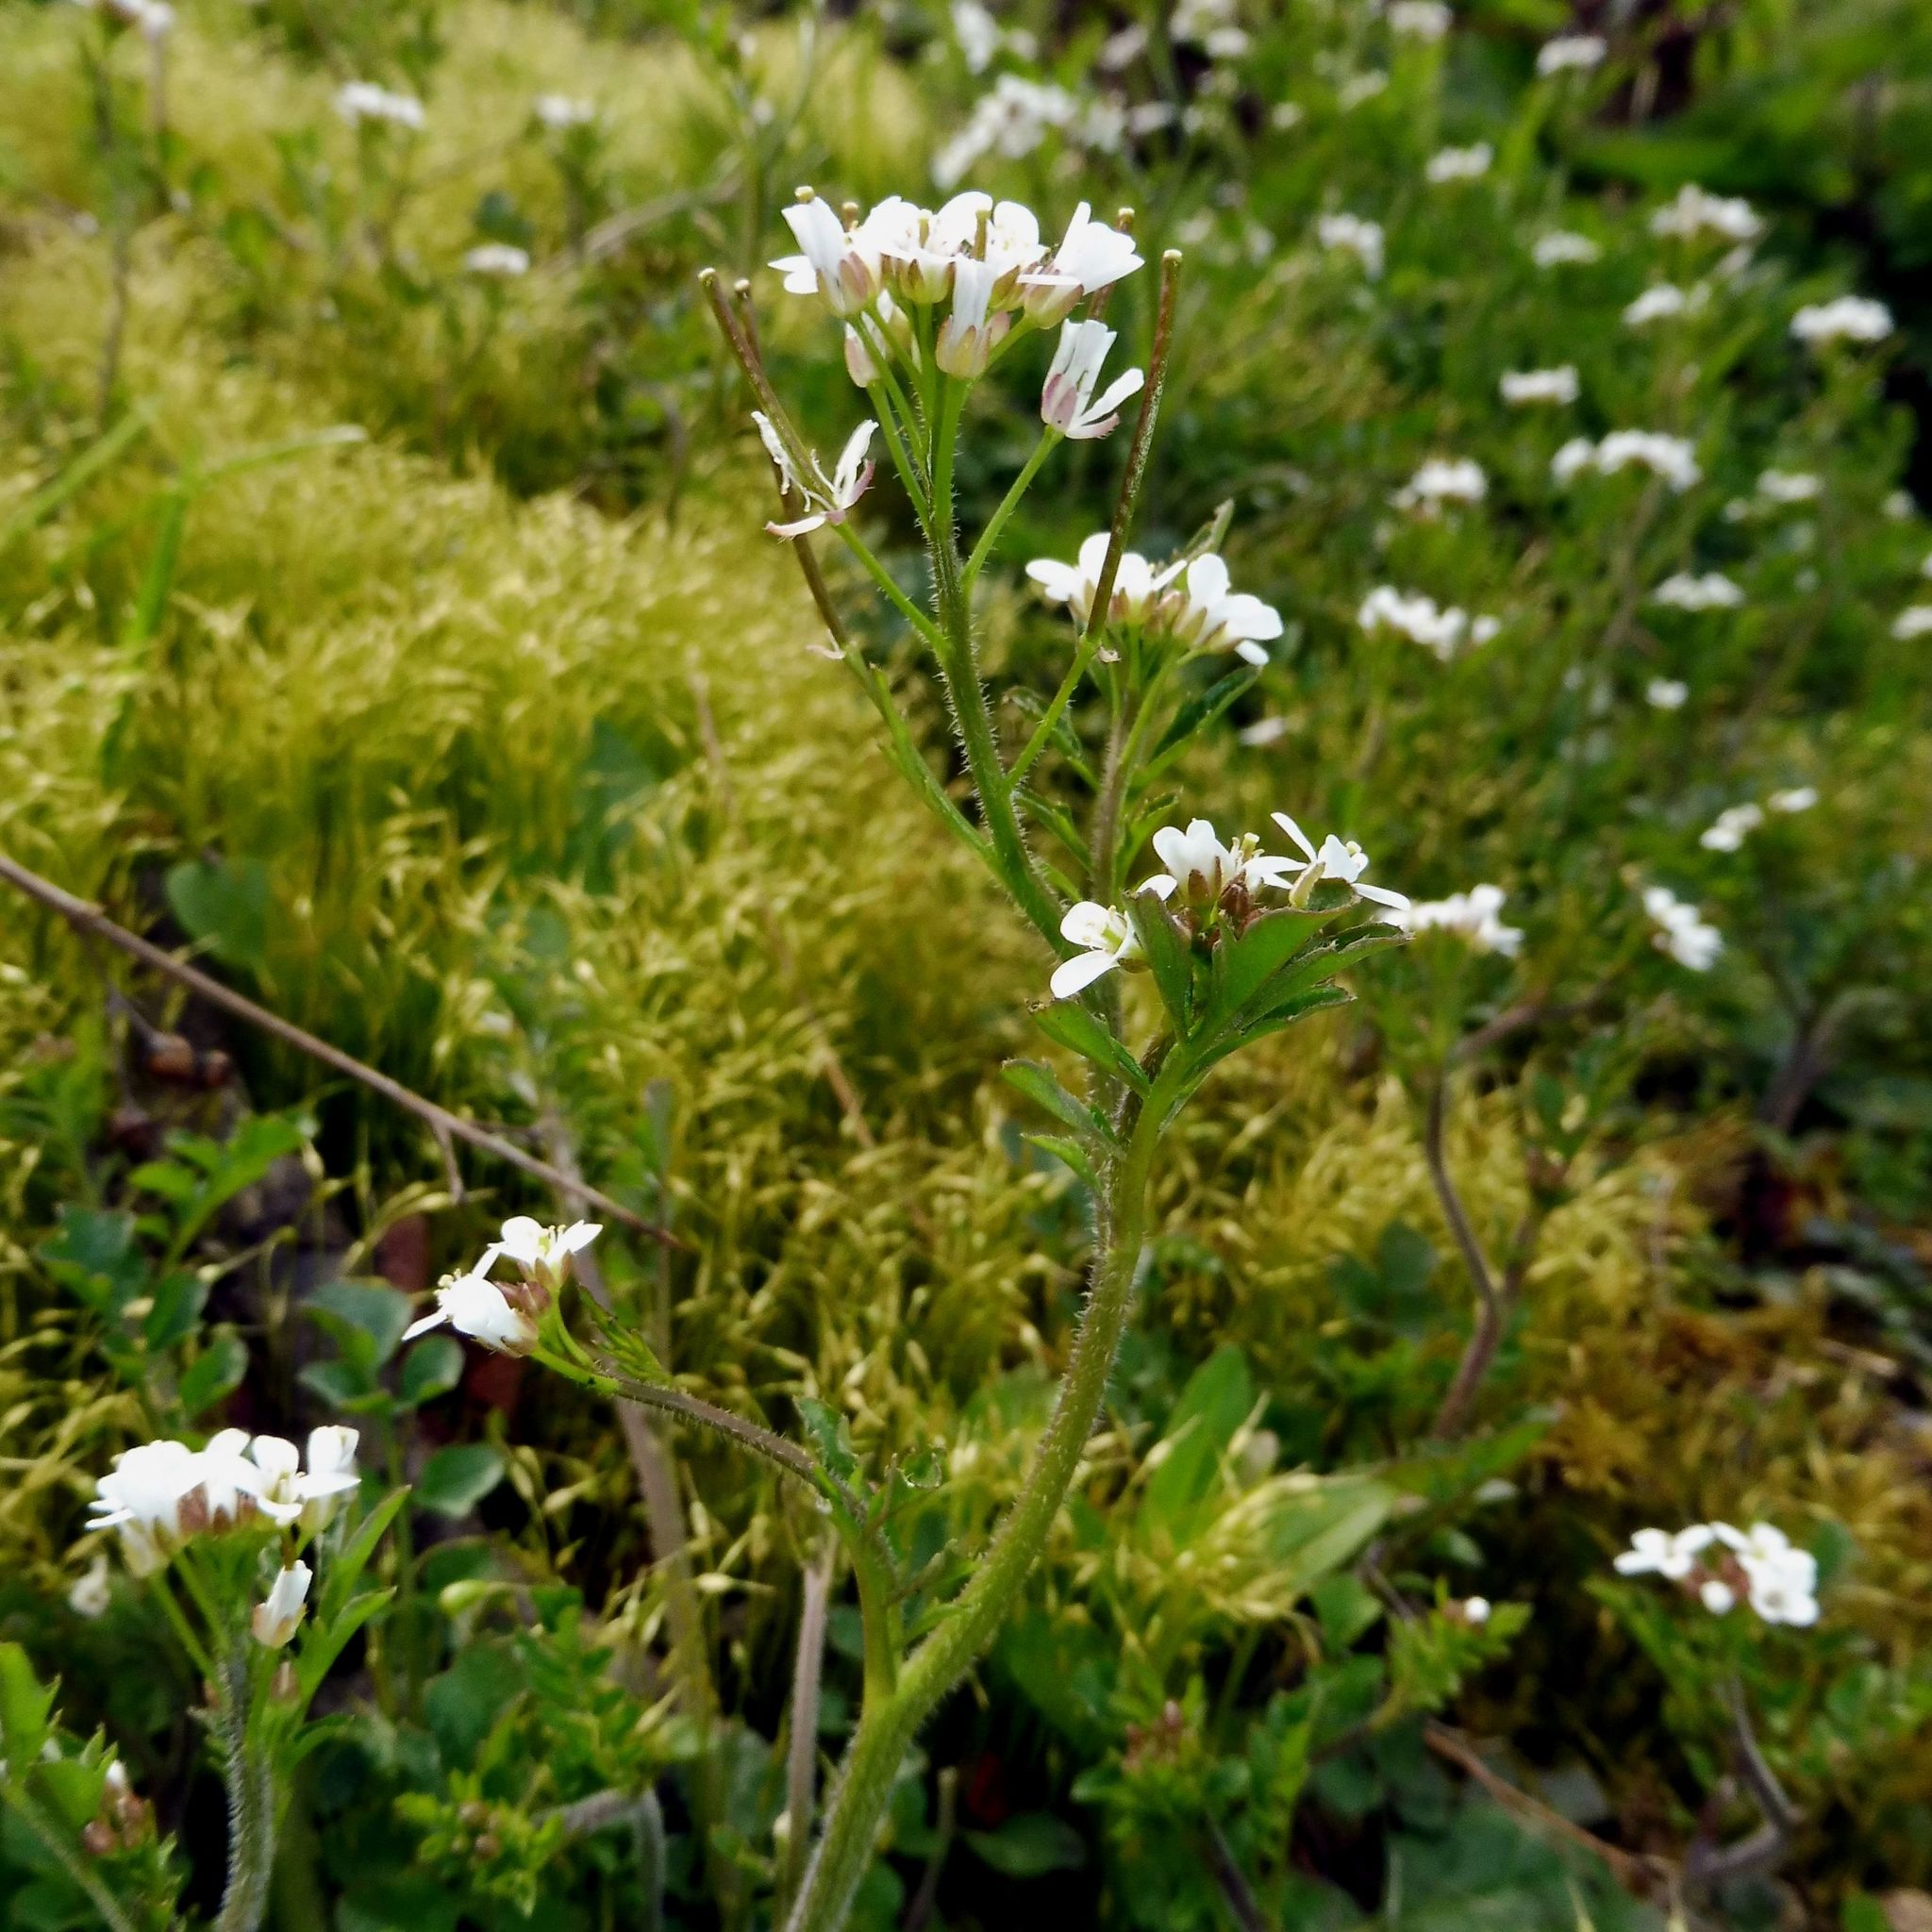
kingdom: Plantae
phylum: Tracheophyta
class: Magnoliopsida
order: Brassicales
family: Brassicaceae
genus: Cardamine
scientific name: Cardamine flexuosa
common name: Woodland bittercress
